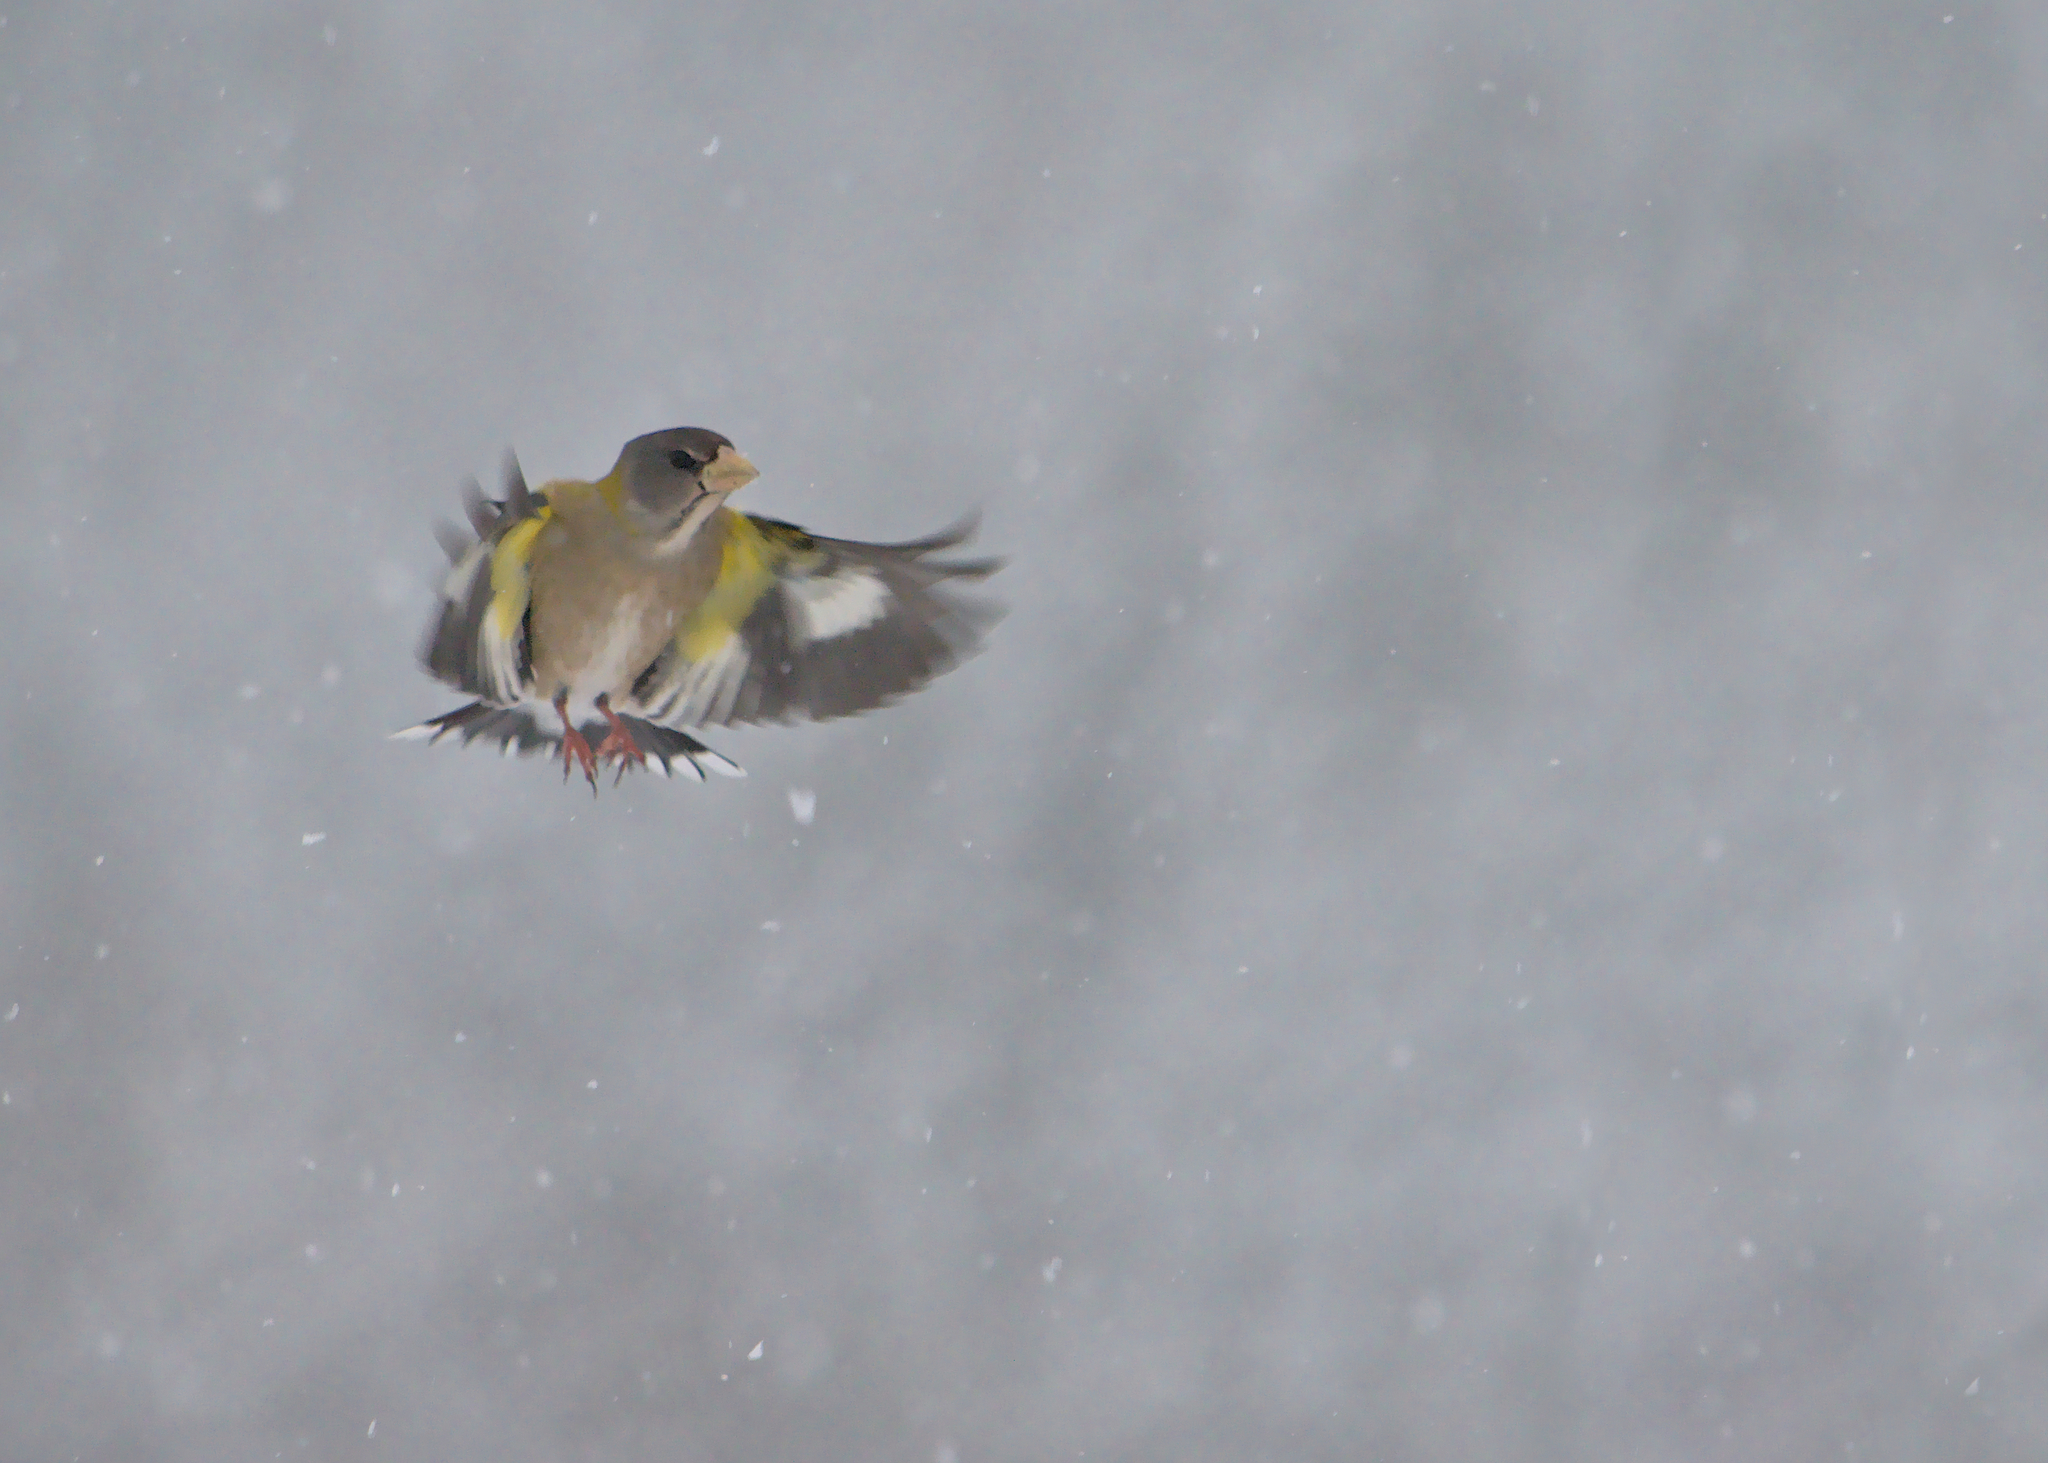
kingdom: Animalia
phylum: Chordata
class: Aves
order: Passeriformes
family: Fringillidae
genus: Hesperiphona
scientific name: Hesperiphona vespertina
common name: Evening grosbeak
